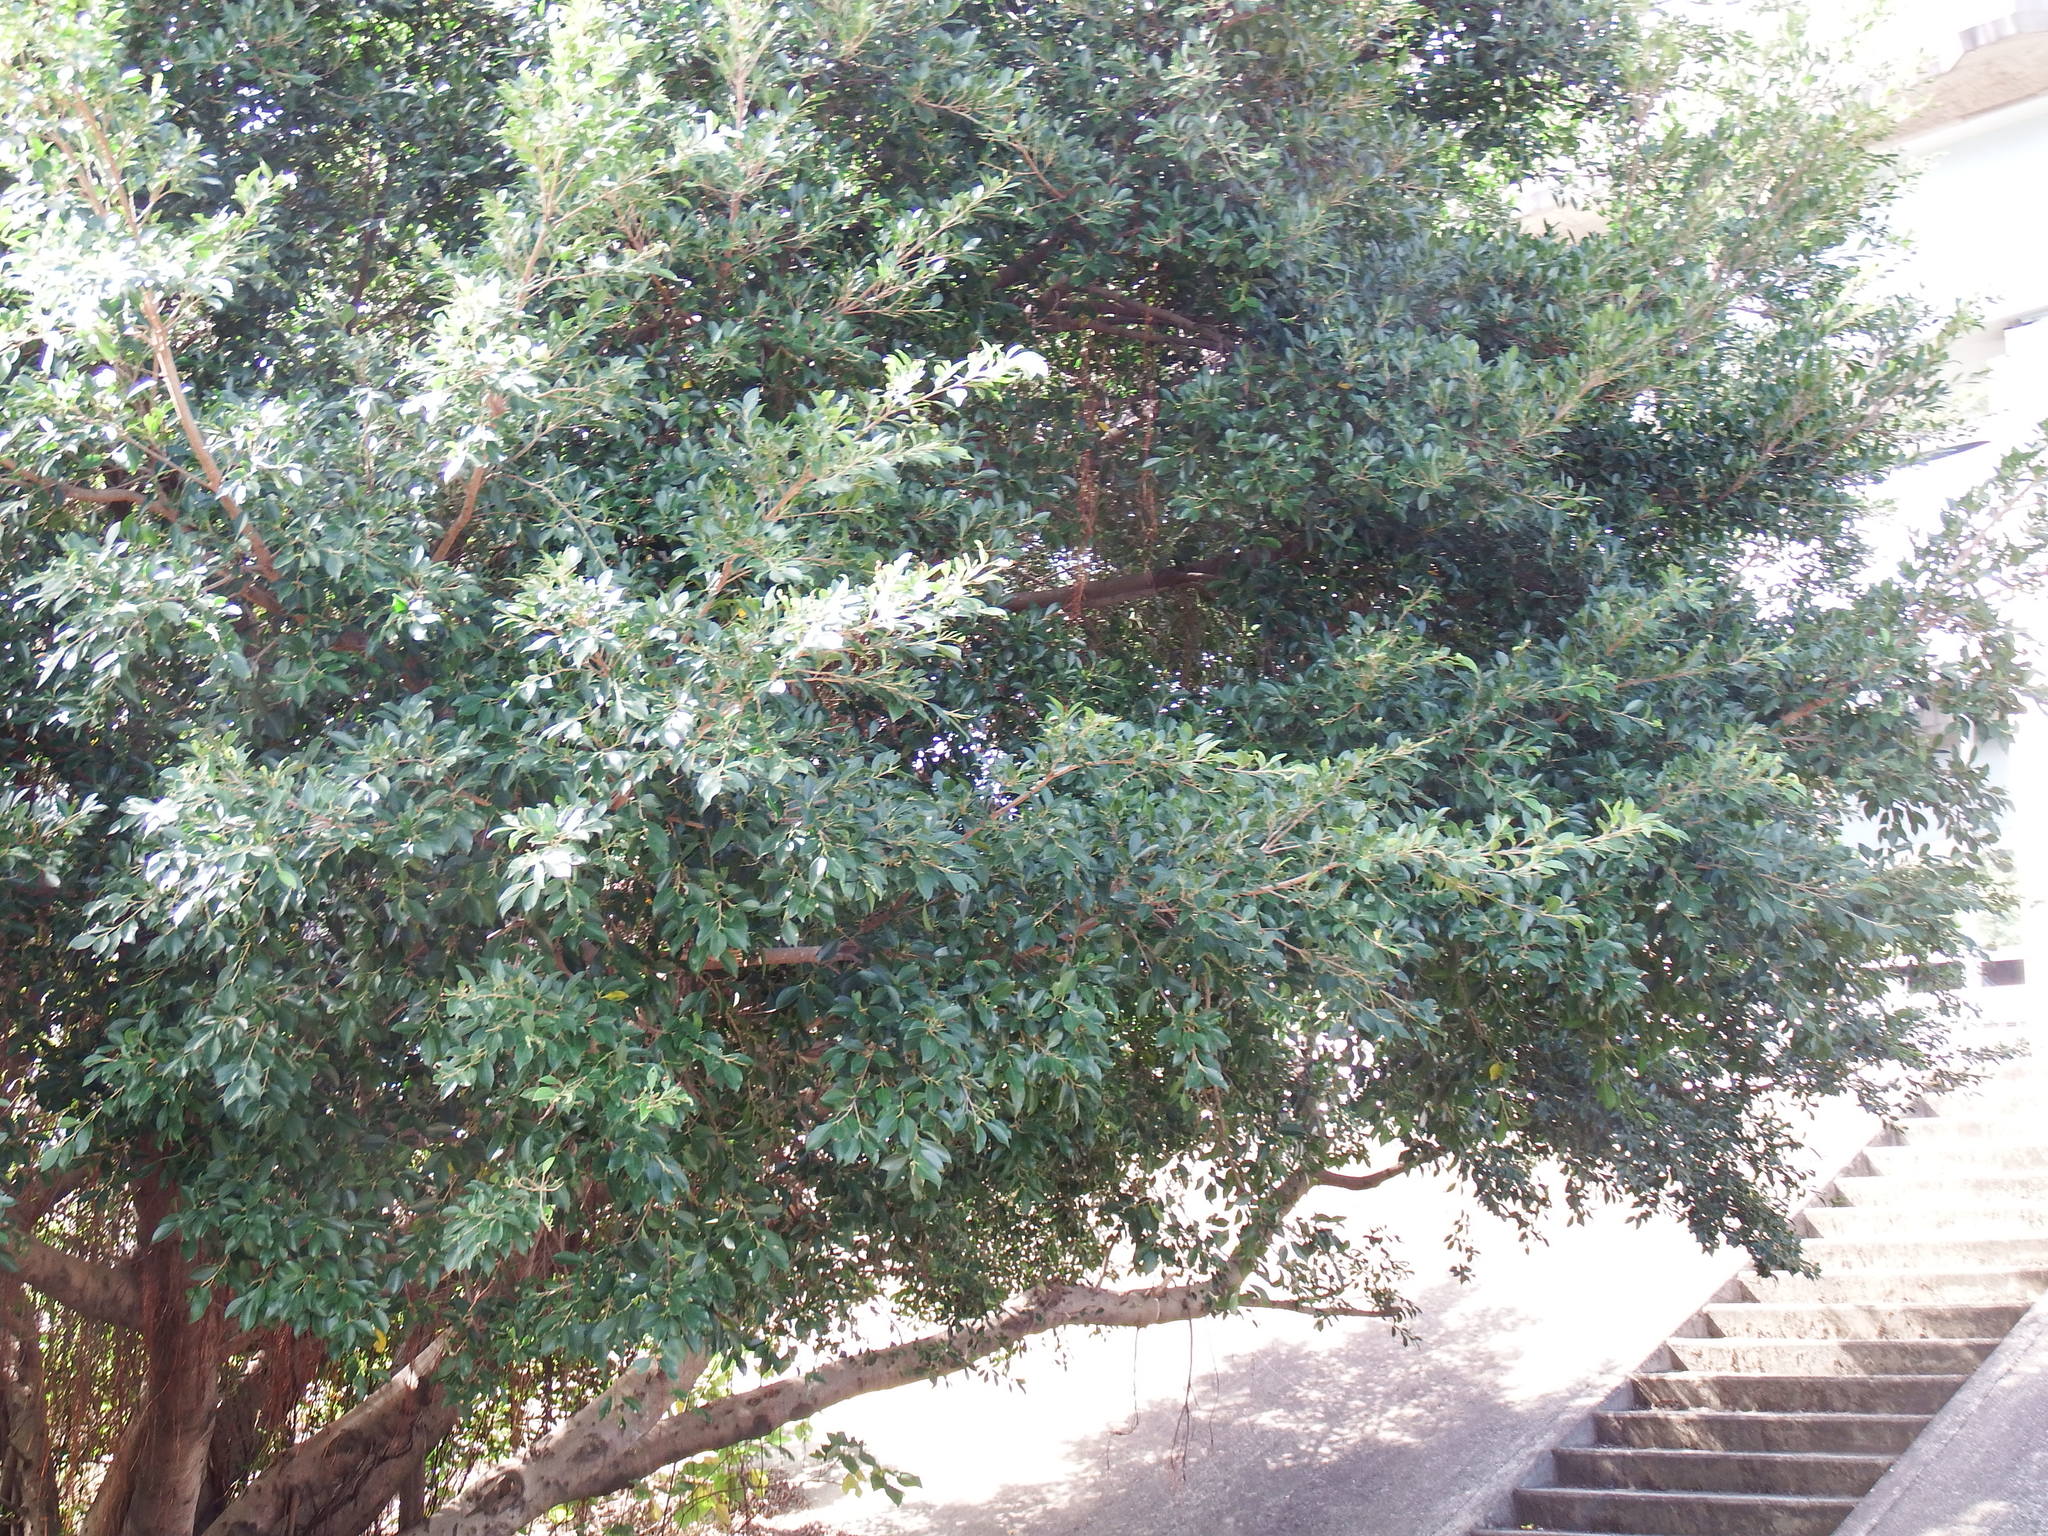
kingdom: Plantae
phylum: Tracheophyta
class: Magnoliopsida
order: Rosales
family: Moraceae
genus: Ficus
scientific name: Ficus microcarpa
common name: Chinese banyan
